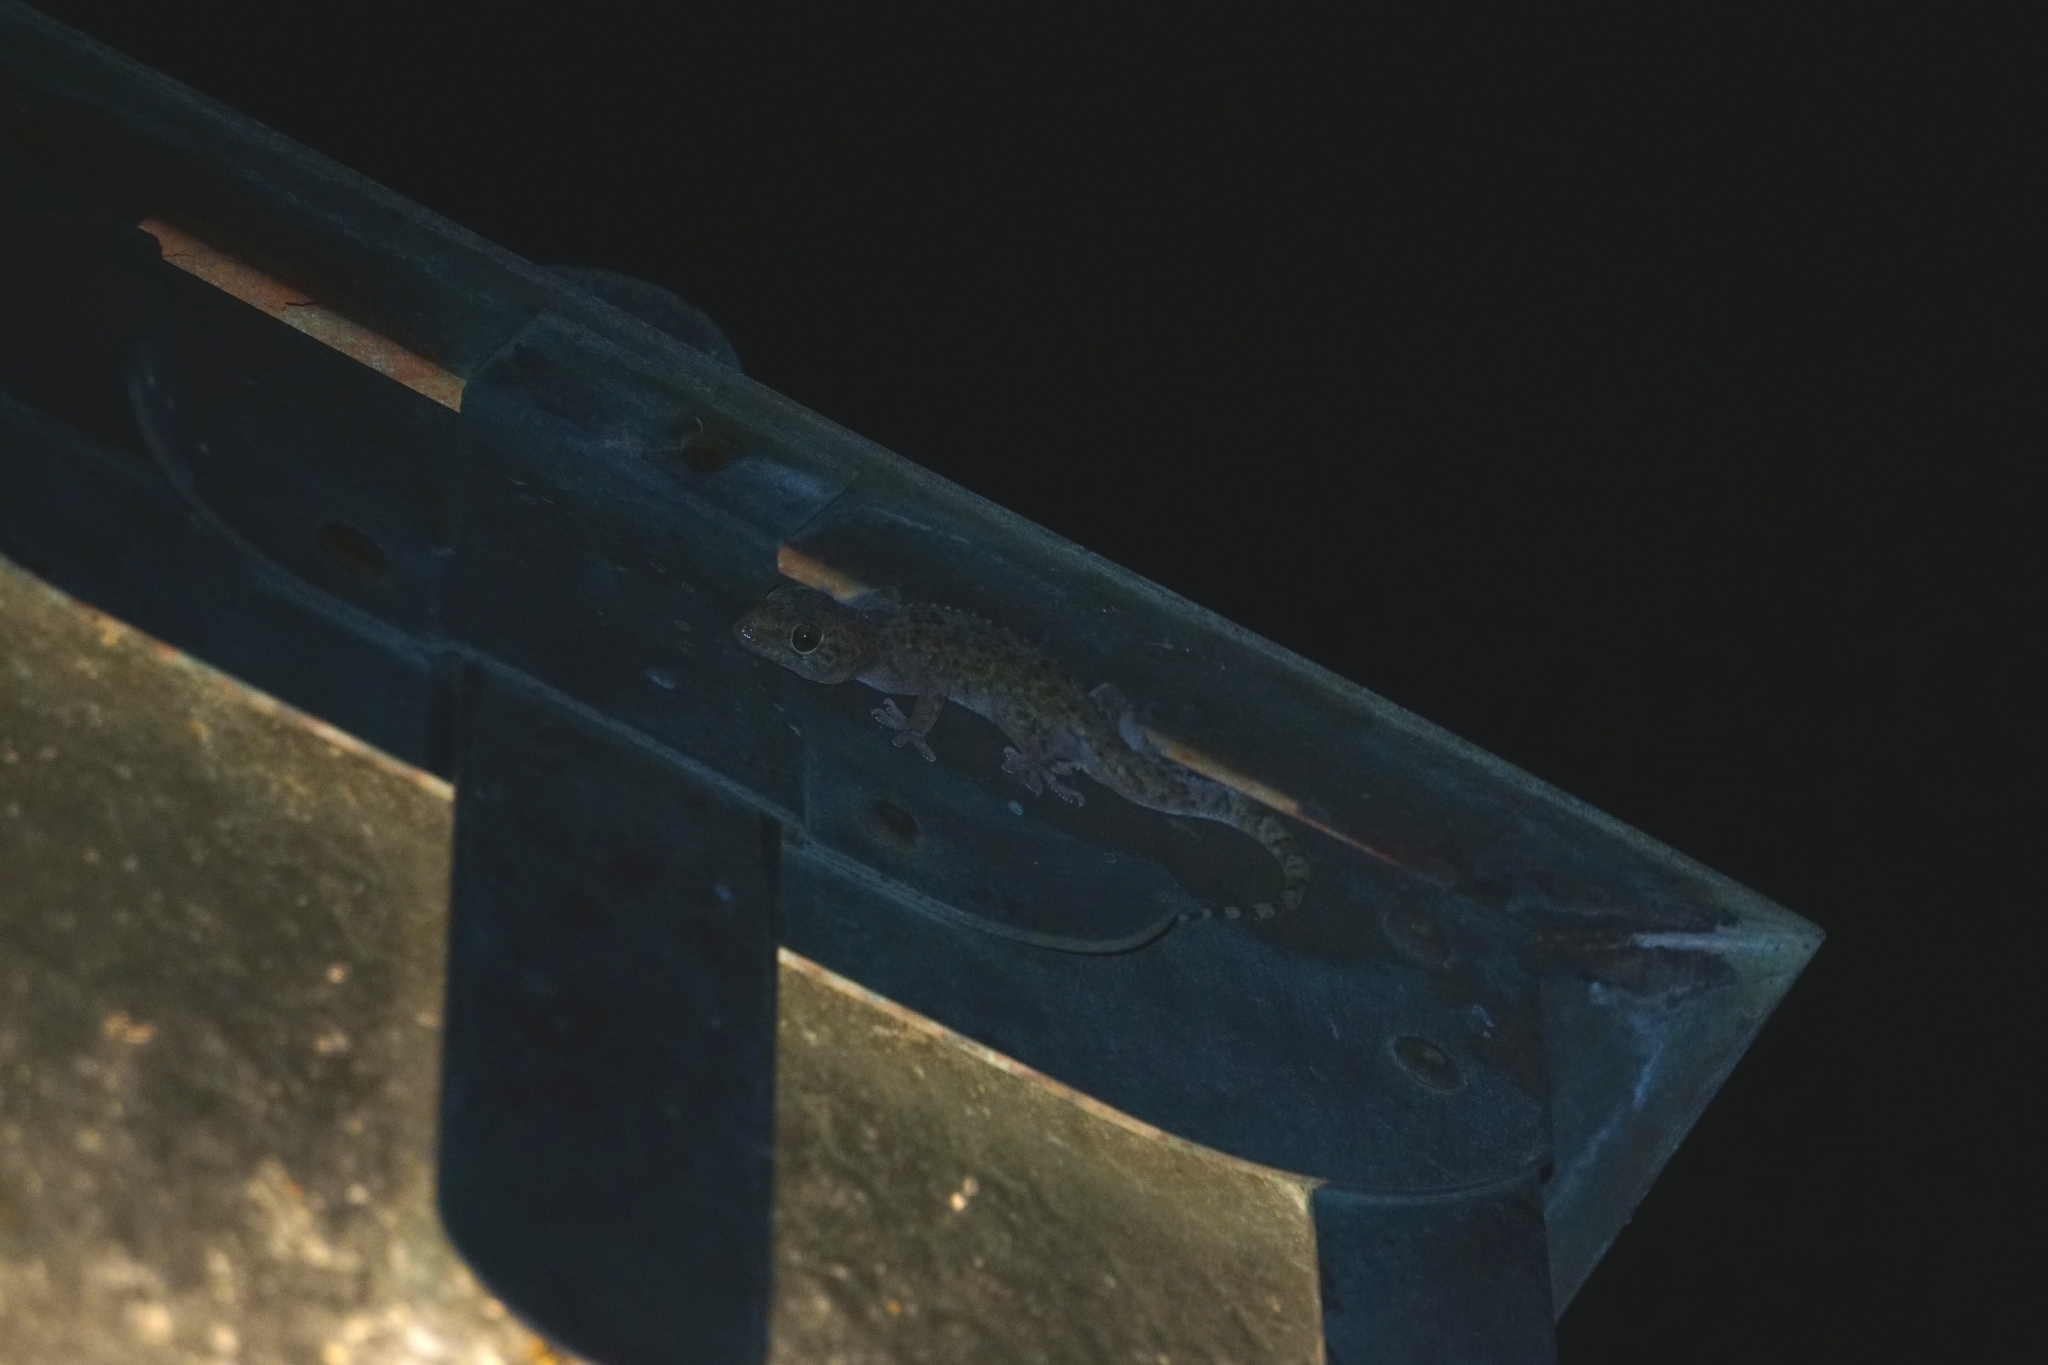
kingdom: Animalia
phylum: Chordata
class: Squamata
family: Gekkonidae
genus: Hemidactylus
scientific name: Hemidactylus turcicus
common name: Turkish gecko
